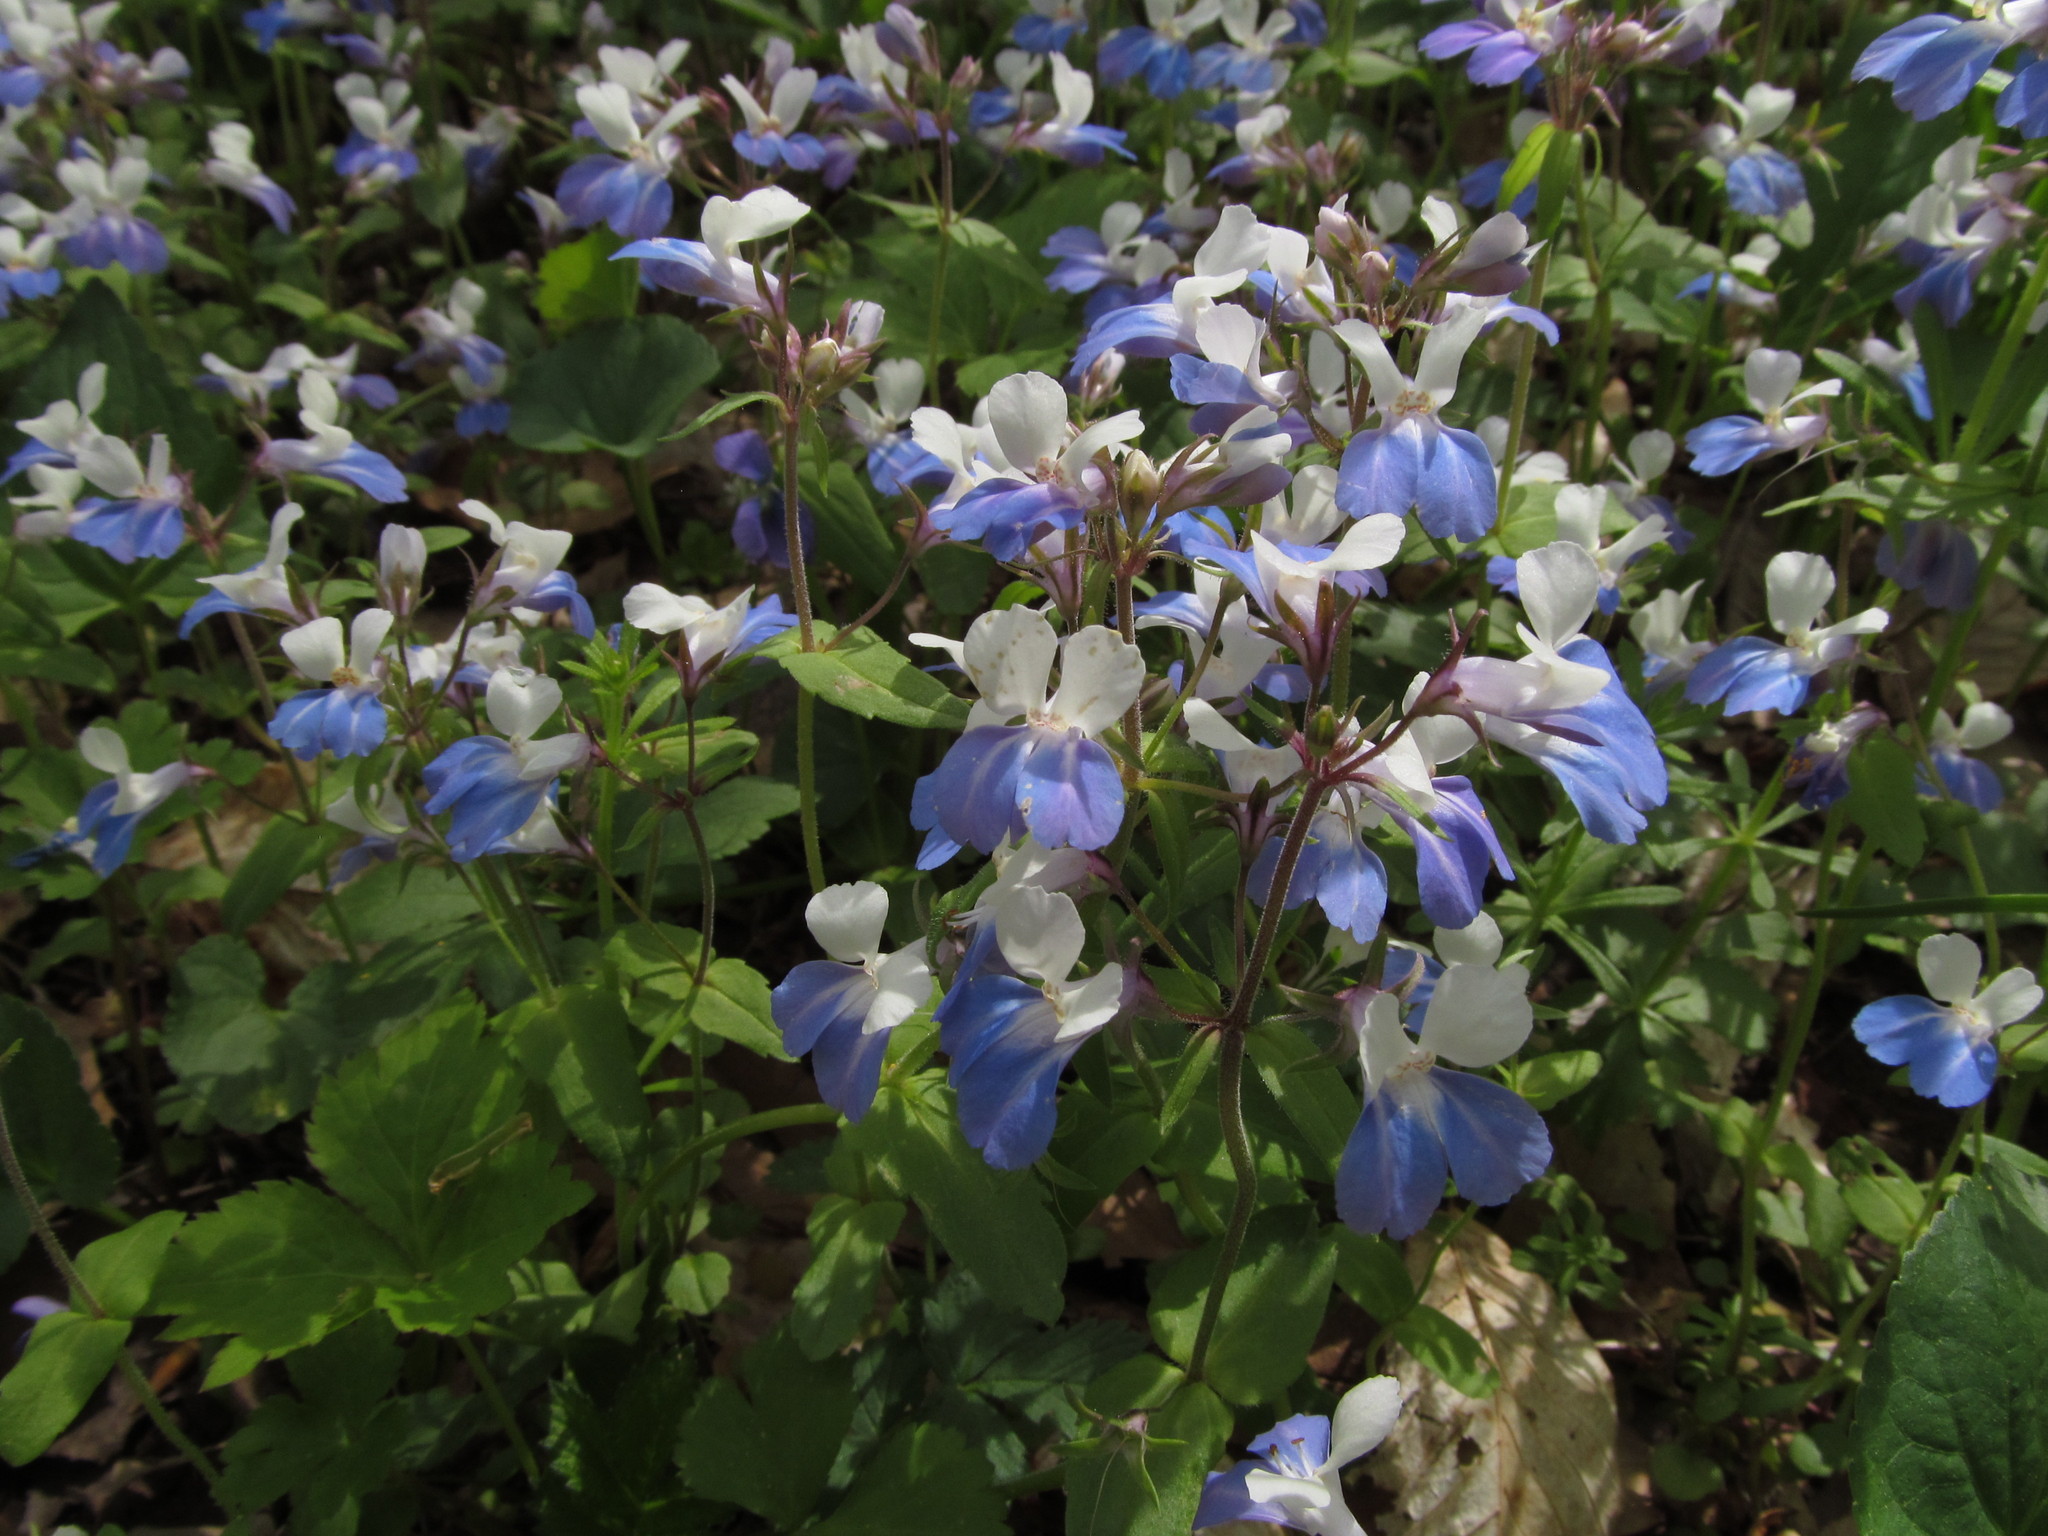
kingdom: Plantae
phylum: Tracheophyta
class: Magnoliopsida
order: Lamiales
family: Plantaginaceae
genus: Collinsia
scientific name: Collinsia verna
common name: Broad-leaved collinsia
